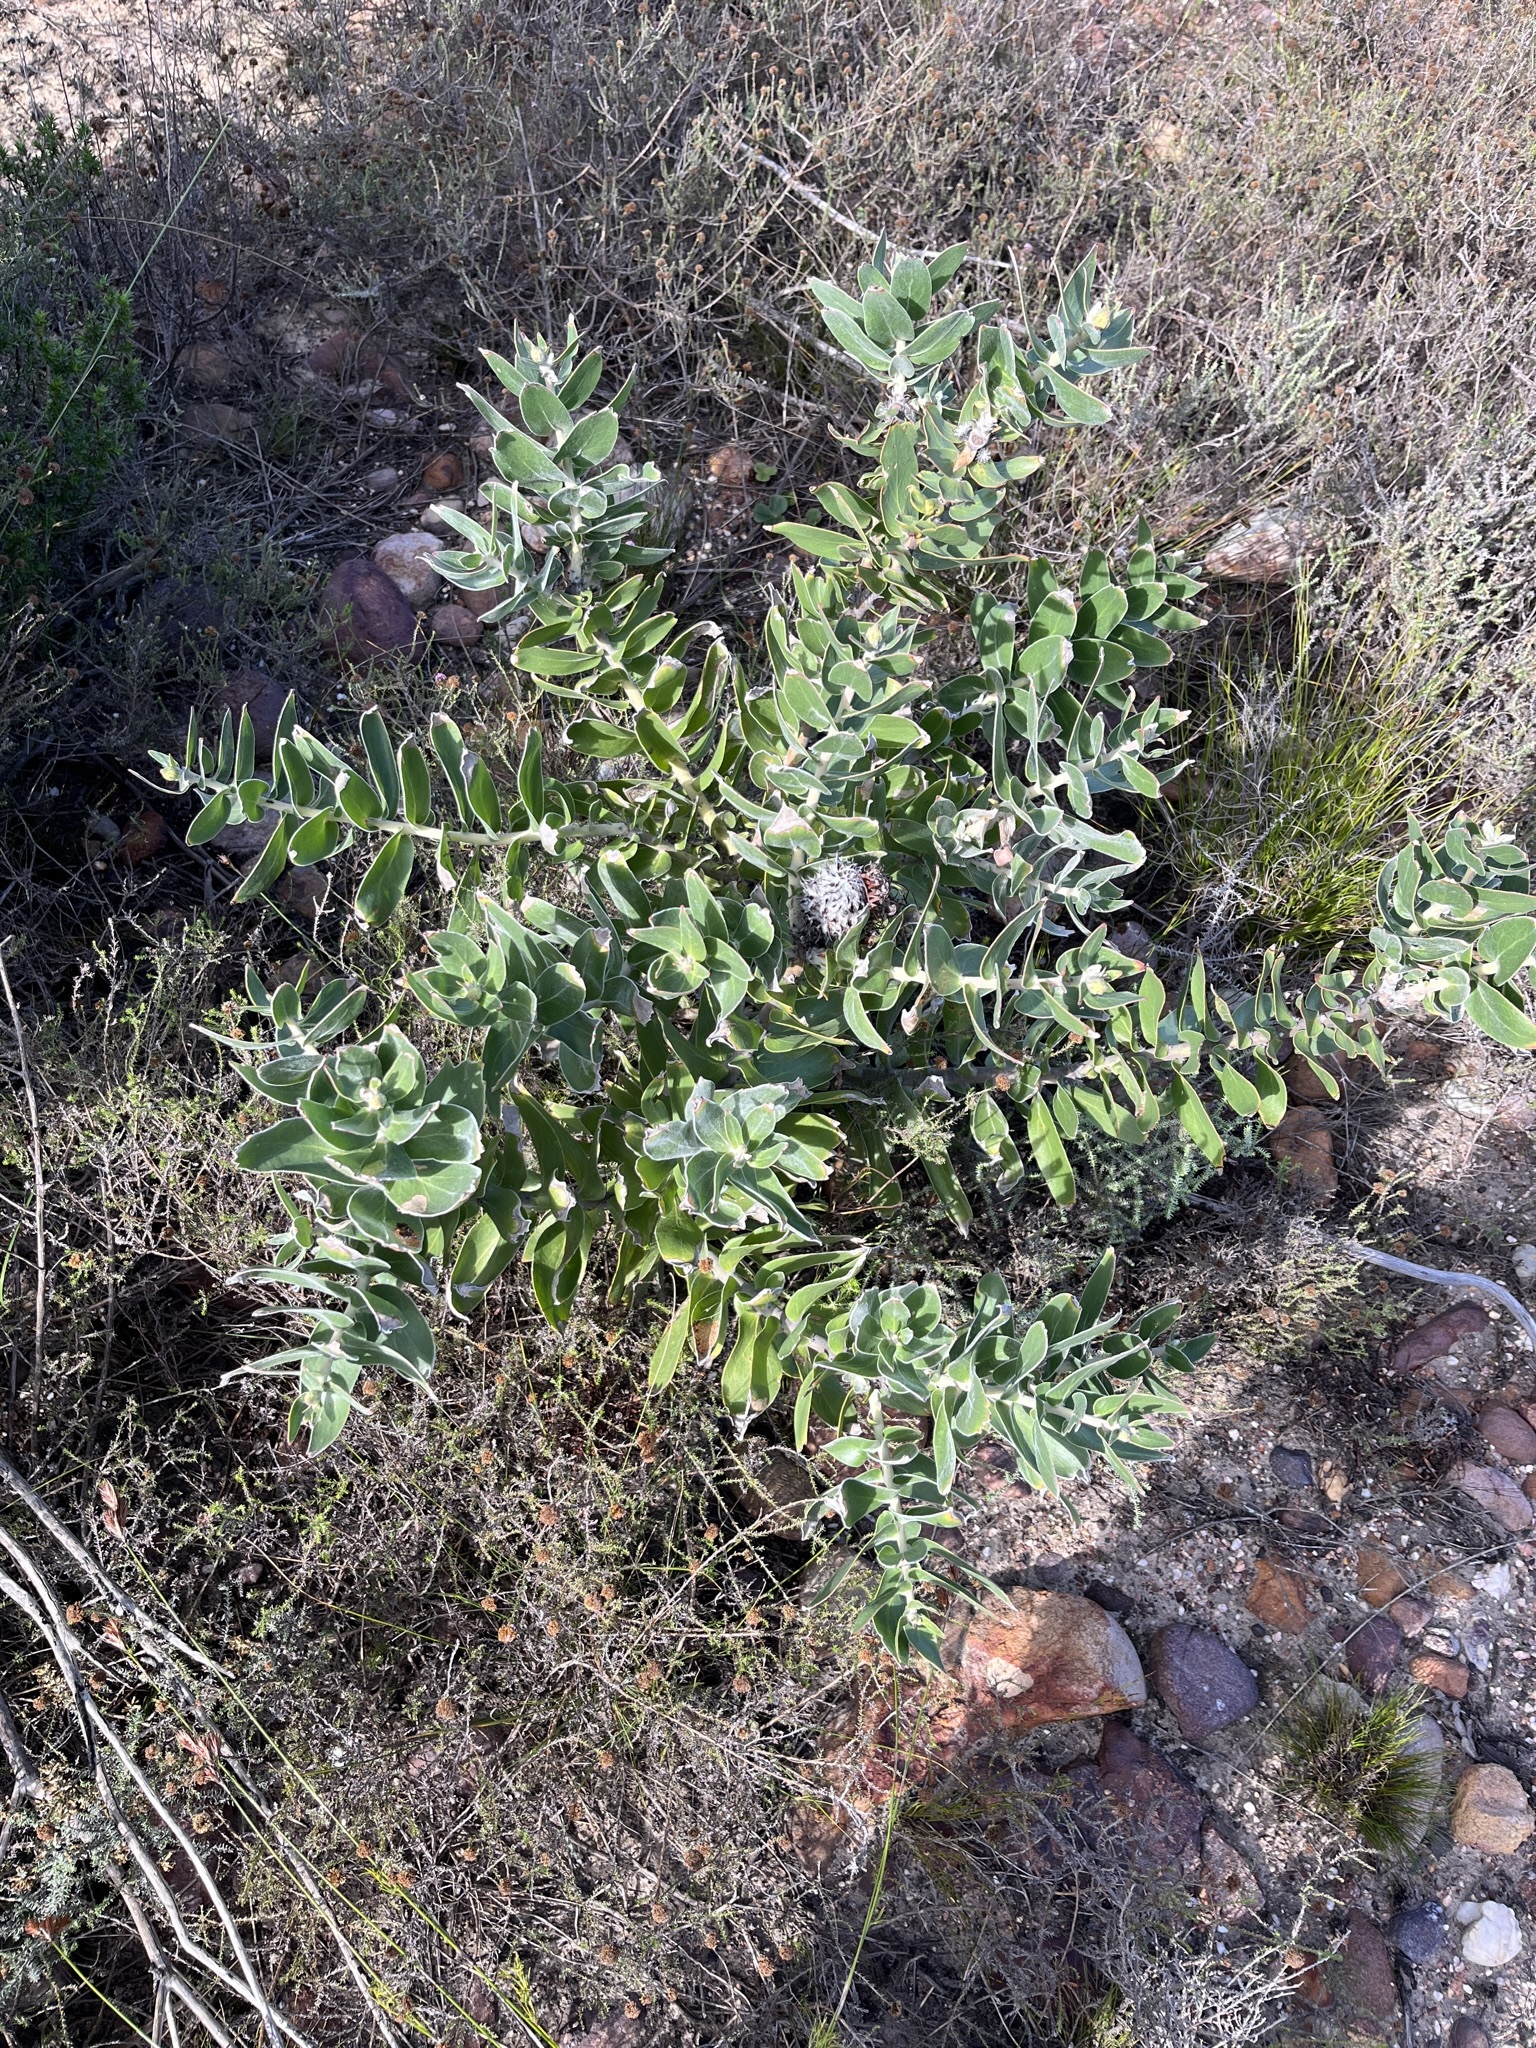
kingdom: Plantae
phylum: Tracheophyta
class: Magnoliopsida
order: Proteales
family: Proteaceae
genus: Leucospermum
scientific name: Leucospermum cordifolium
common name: Red pincushion-protea
